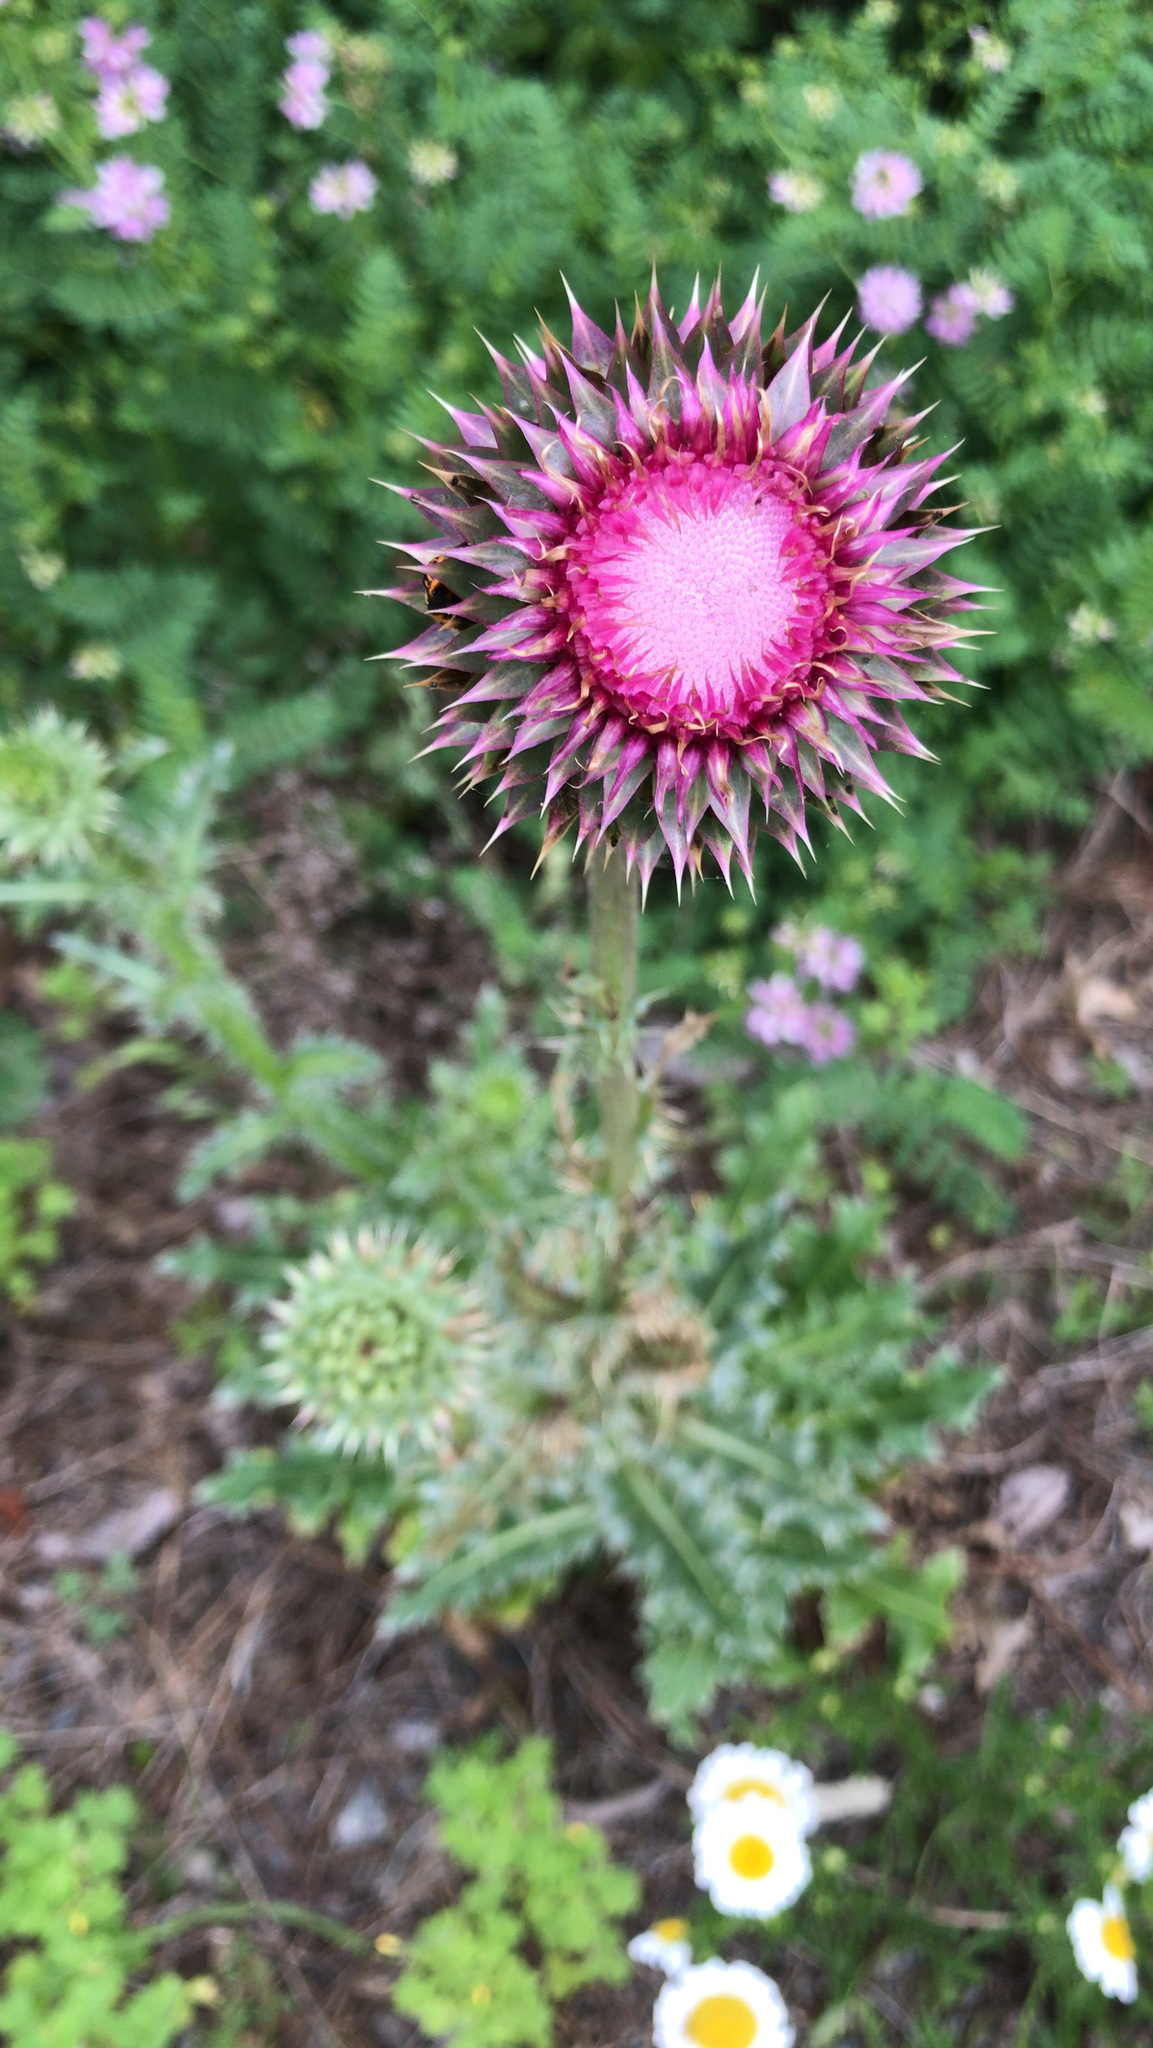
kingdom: Plantae
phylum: Tracheophyta
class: Magnoliopsida
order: Asterales
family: Asteraceae
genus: Carduus
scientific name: Carduus nutans
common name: Musk thistle
